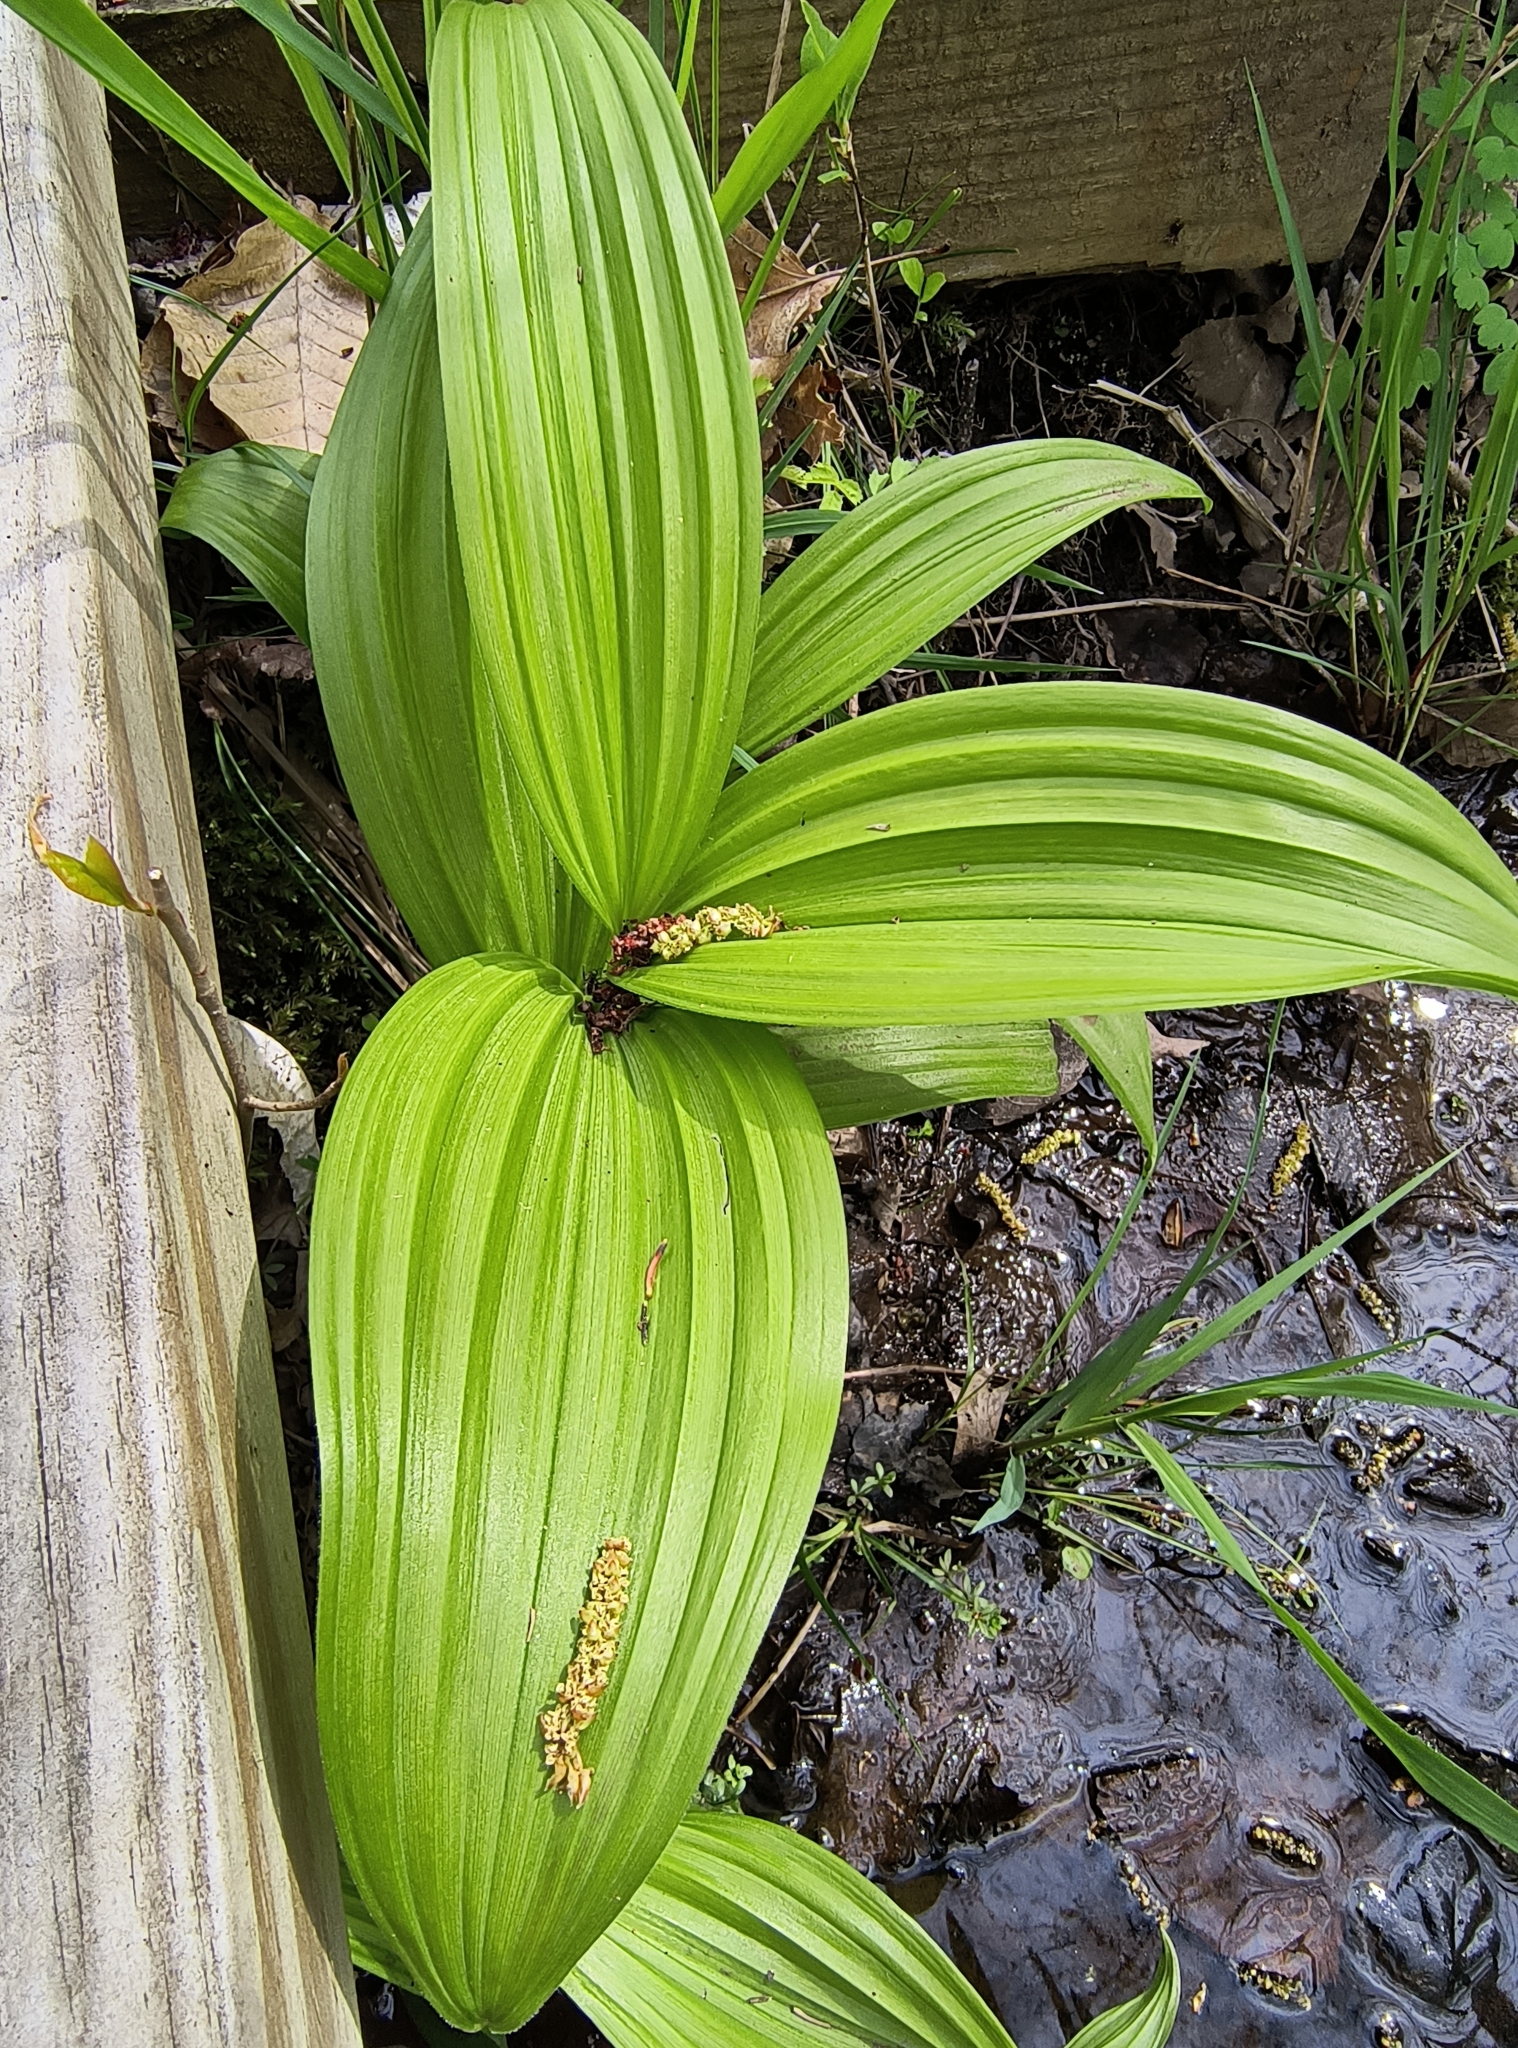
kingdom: Plantae
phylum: Tracheophyta
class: Liliopsida
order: Liliales
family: Melanthiaceae
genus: Veratrum
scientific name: Veratrum viride
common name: American false hellebore
